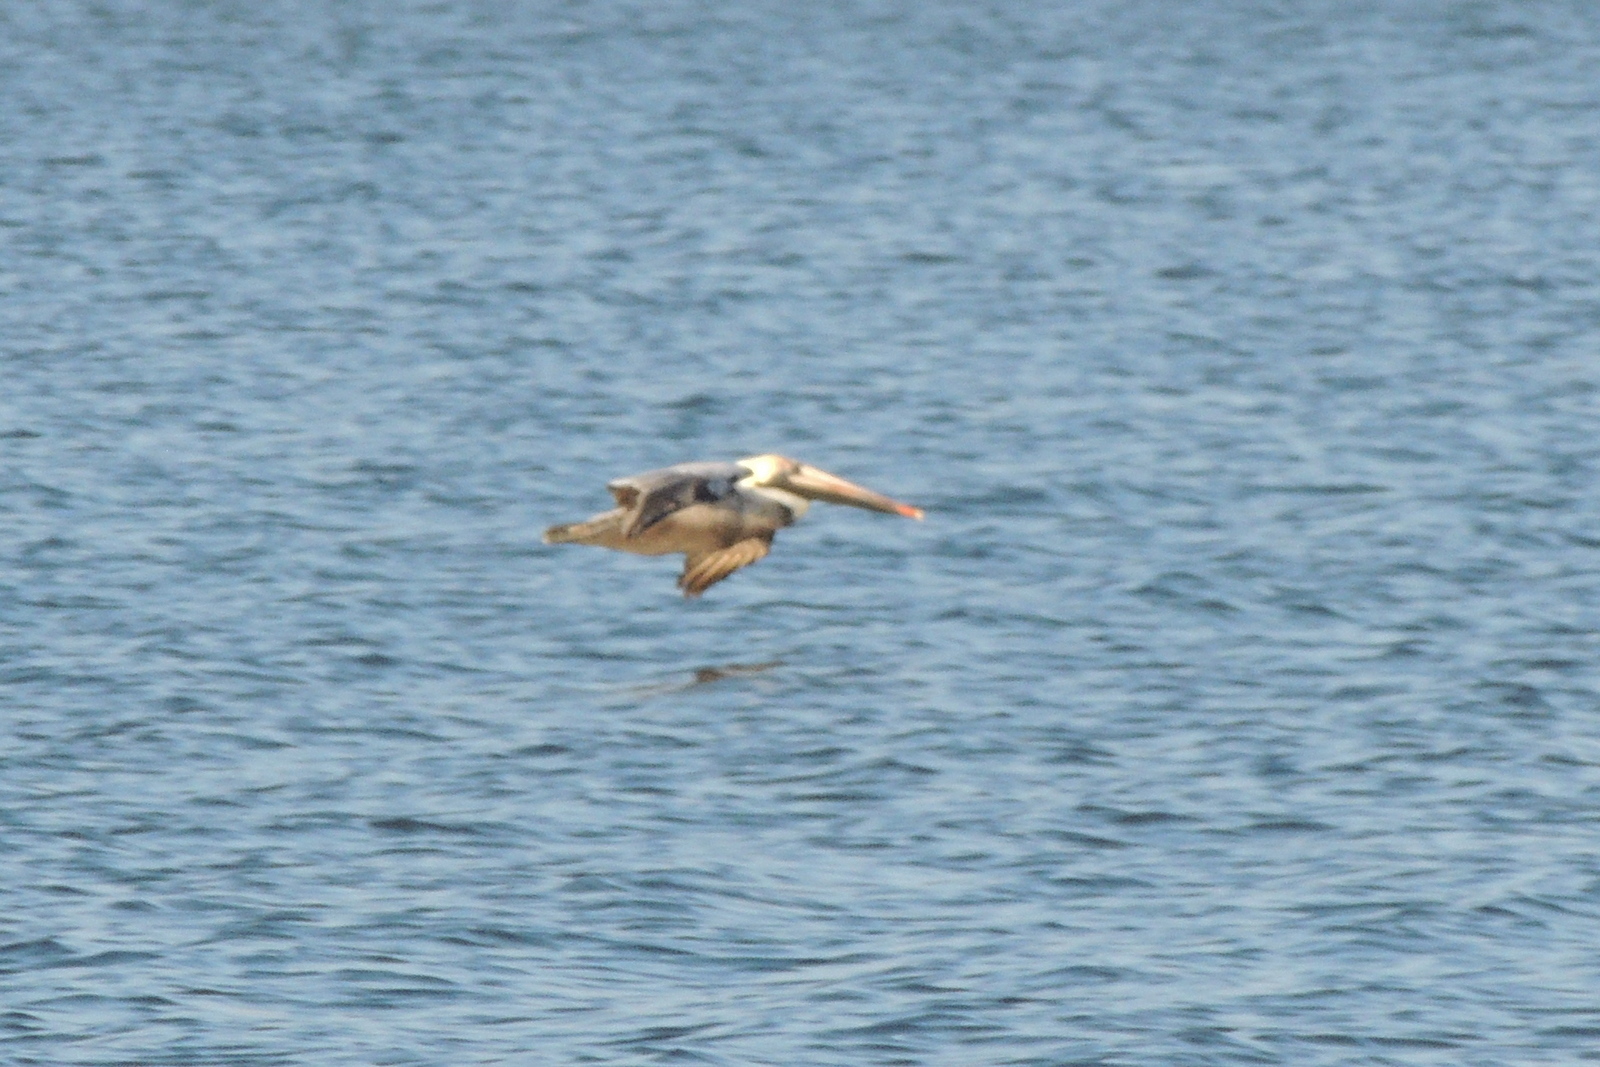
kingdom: Animalia
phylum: Chordata
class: Aves
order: Pelecaniformes
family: Pelecanidae
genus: Pelecanus
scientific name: Pelecanus occidentalis
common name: Brown pelican
